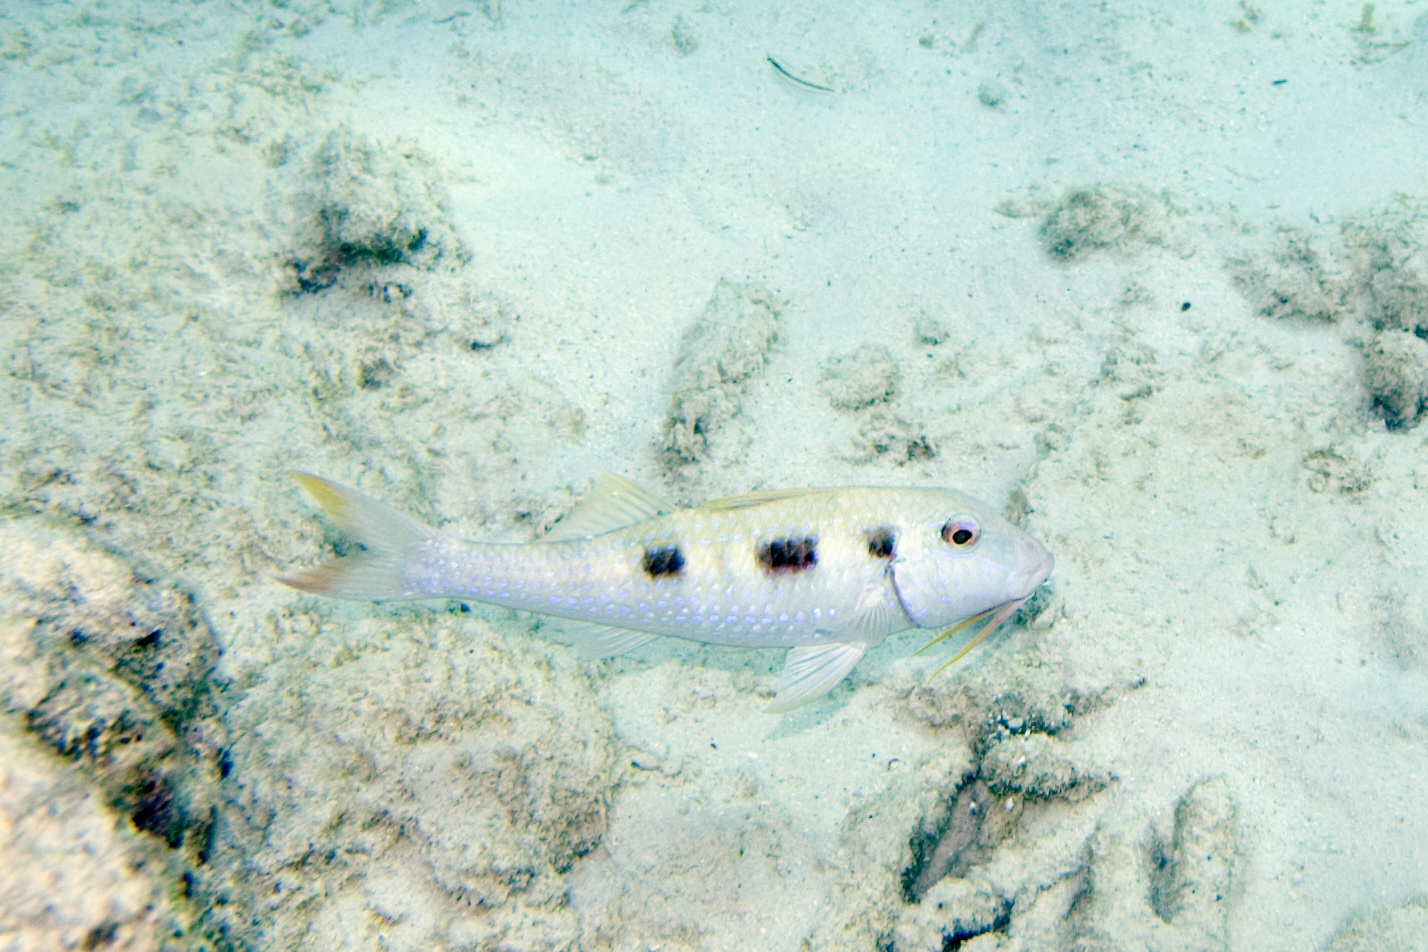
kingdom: Animalia
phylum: Chordata
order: Perciformes
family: Mullidae
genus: Pseudupeneus
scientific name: Pseudupeneus maculatus
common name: Spotted goatfish
